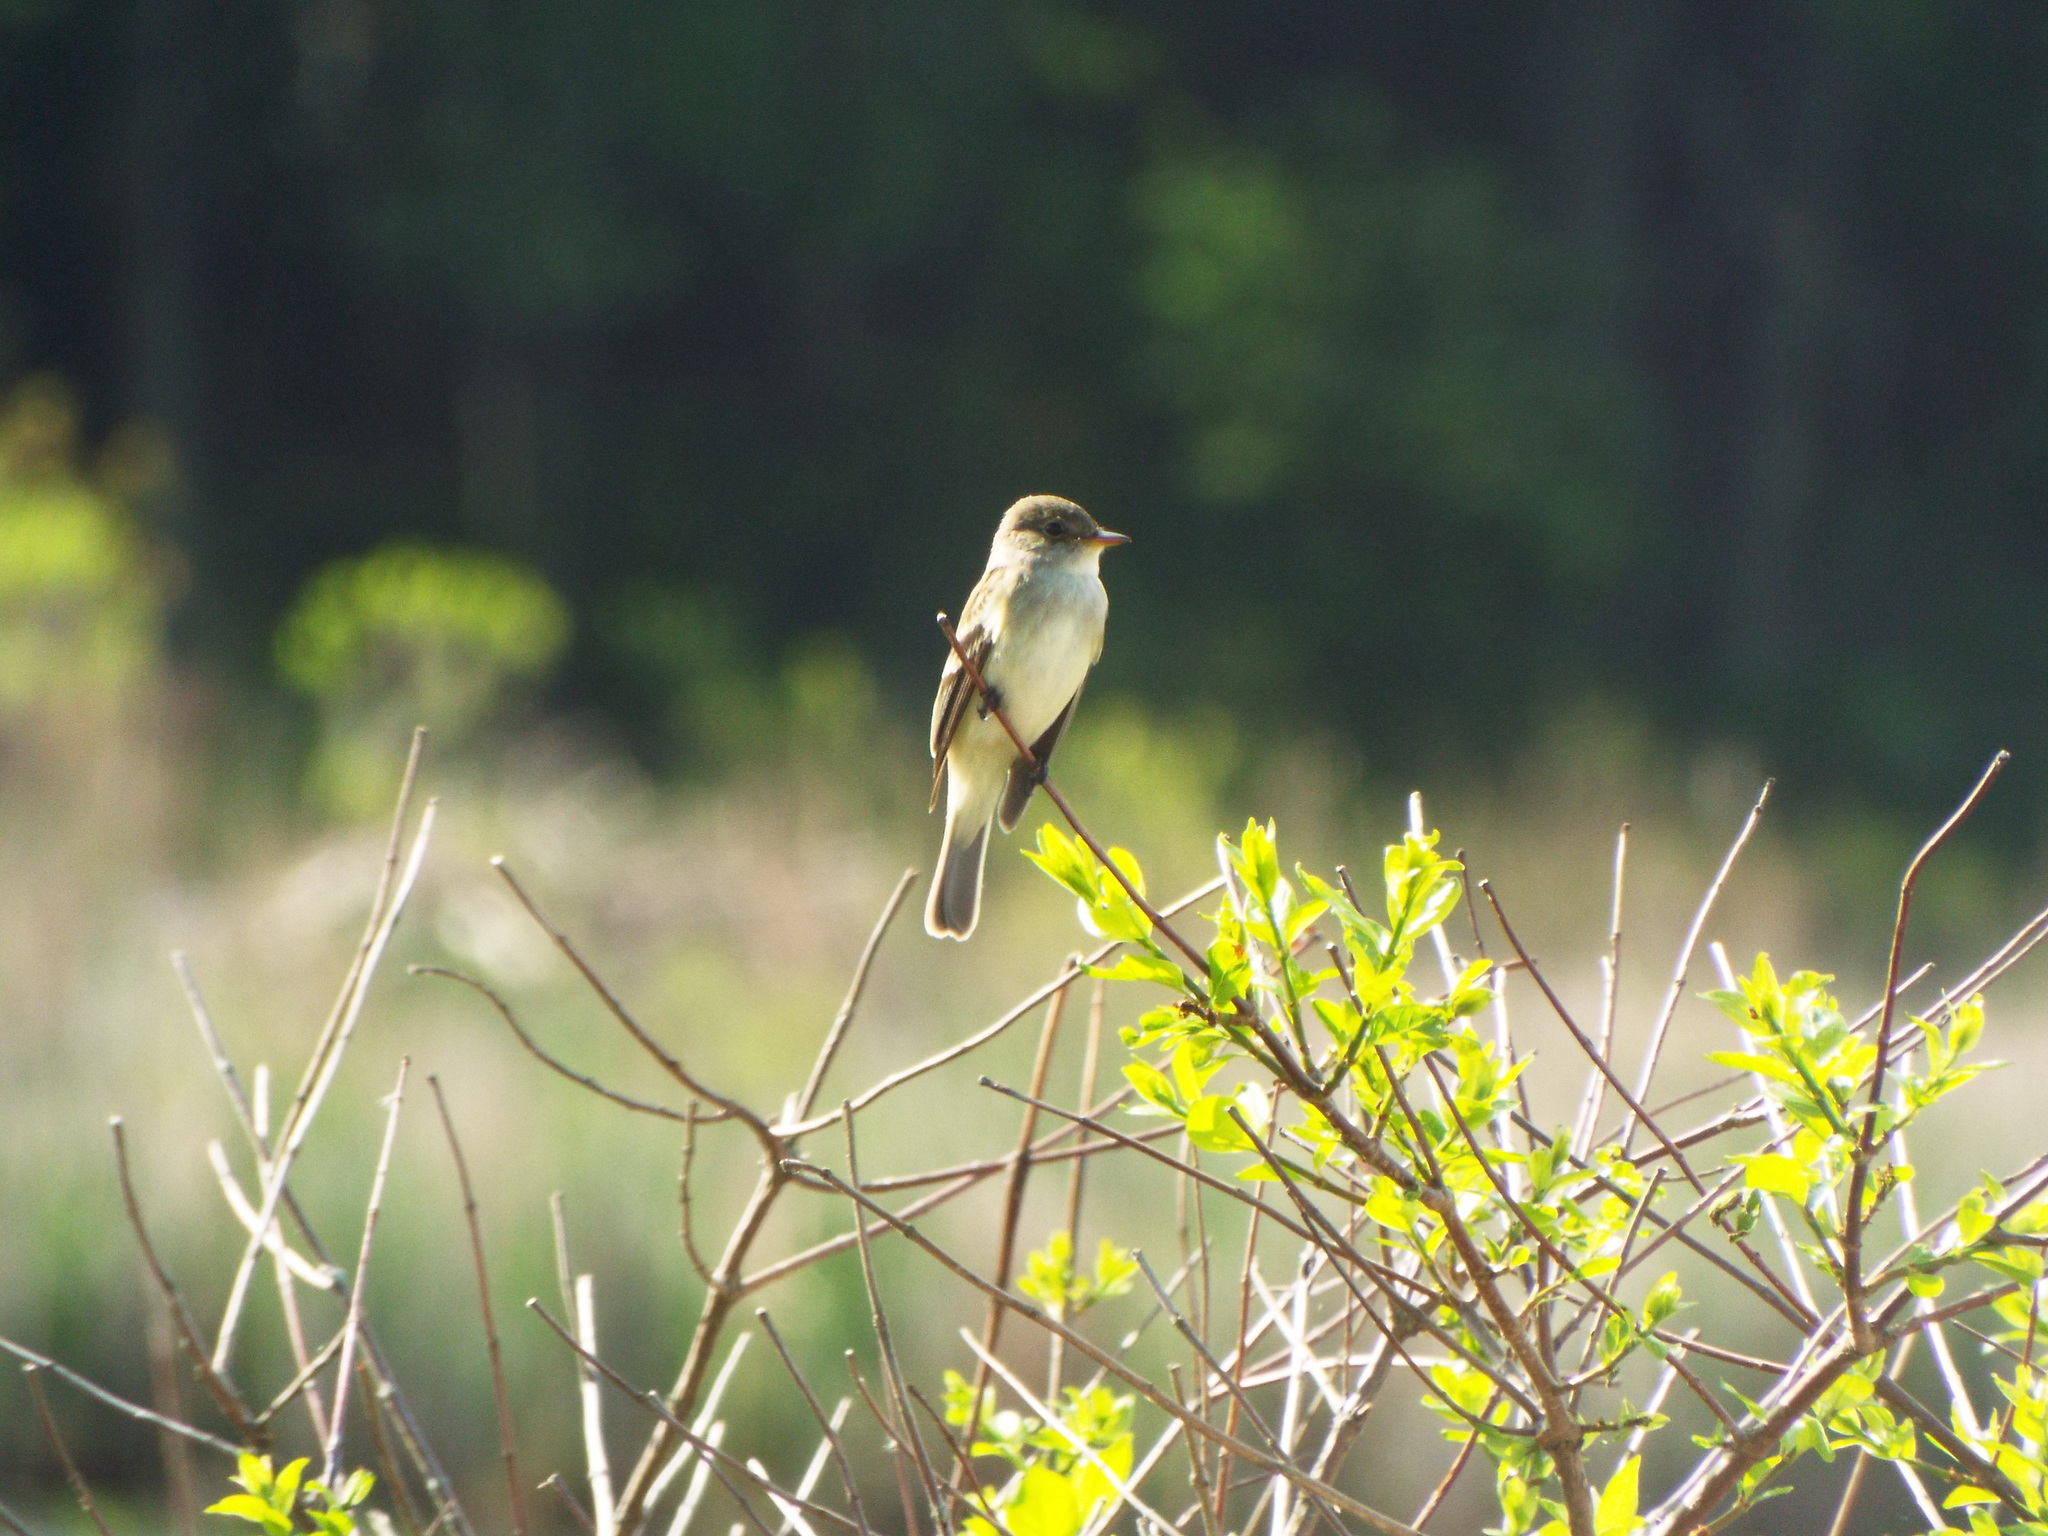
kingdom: Animalia
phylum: Chordata
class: Aves
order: Passeriformes
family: Tyrannidae
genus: Empidonax
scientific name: Empidonax traillii
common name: Willow flycatcher
